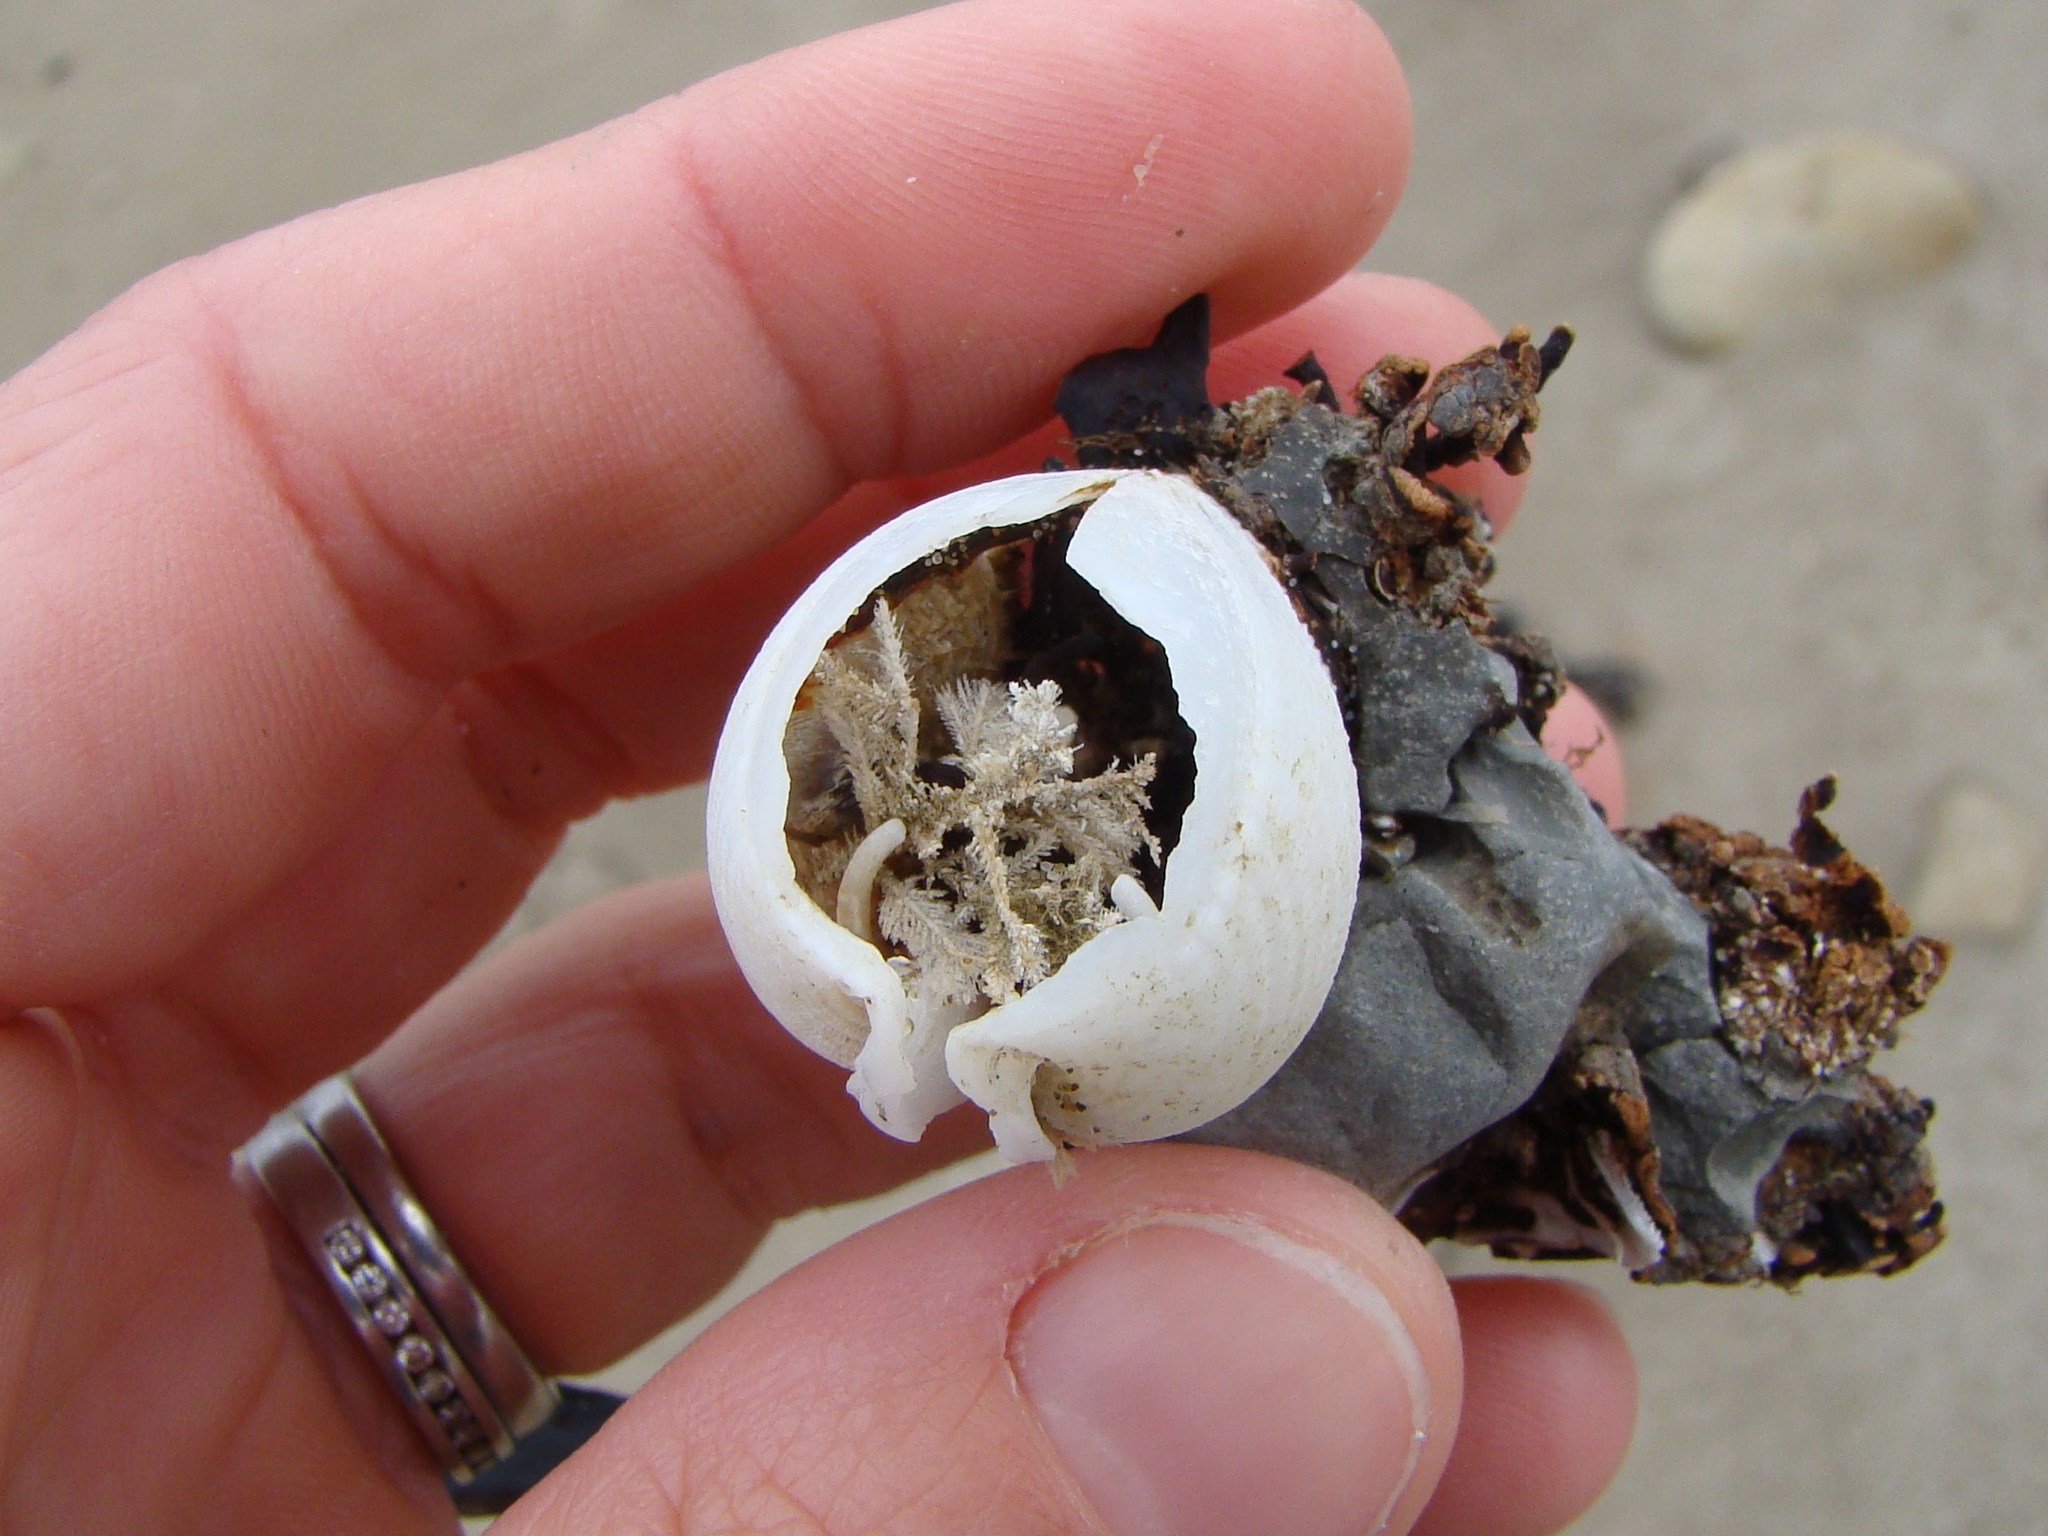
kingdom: Animalia
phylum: Mollusca
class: Bivalvia
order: Myida
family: Pholadidae
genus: Pholadidea
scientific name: Pholadidea suteri
